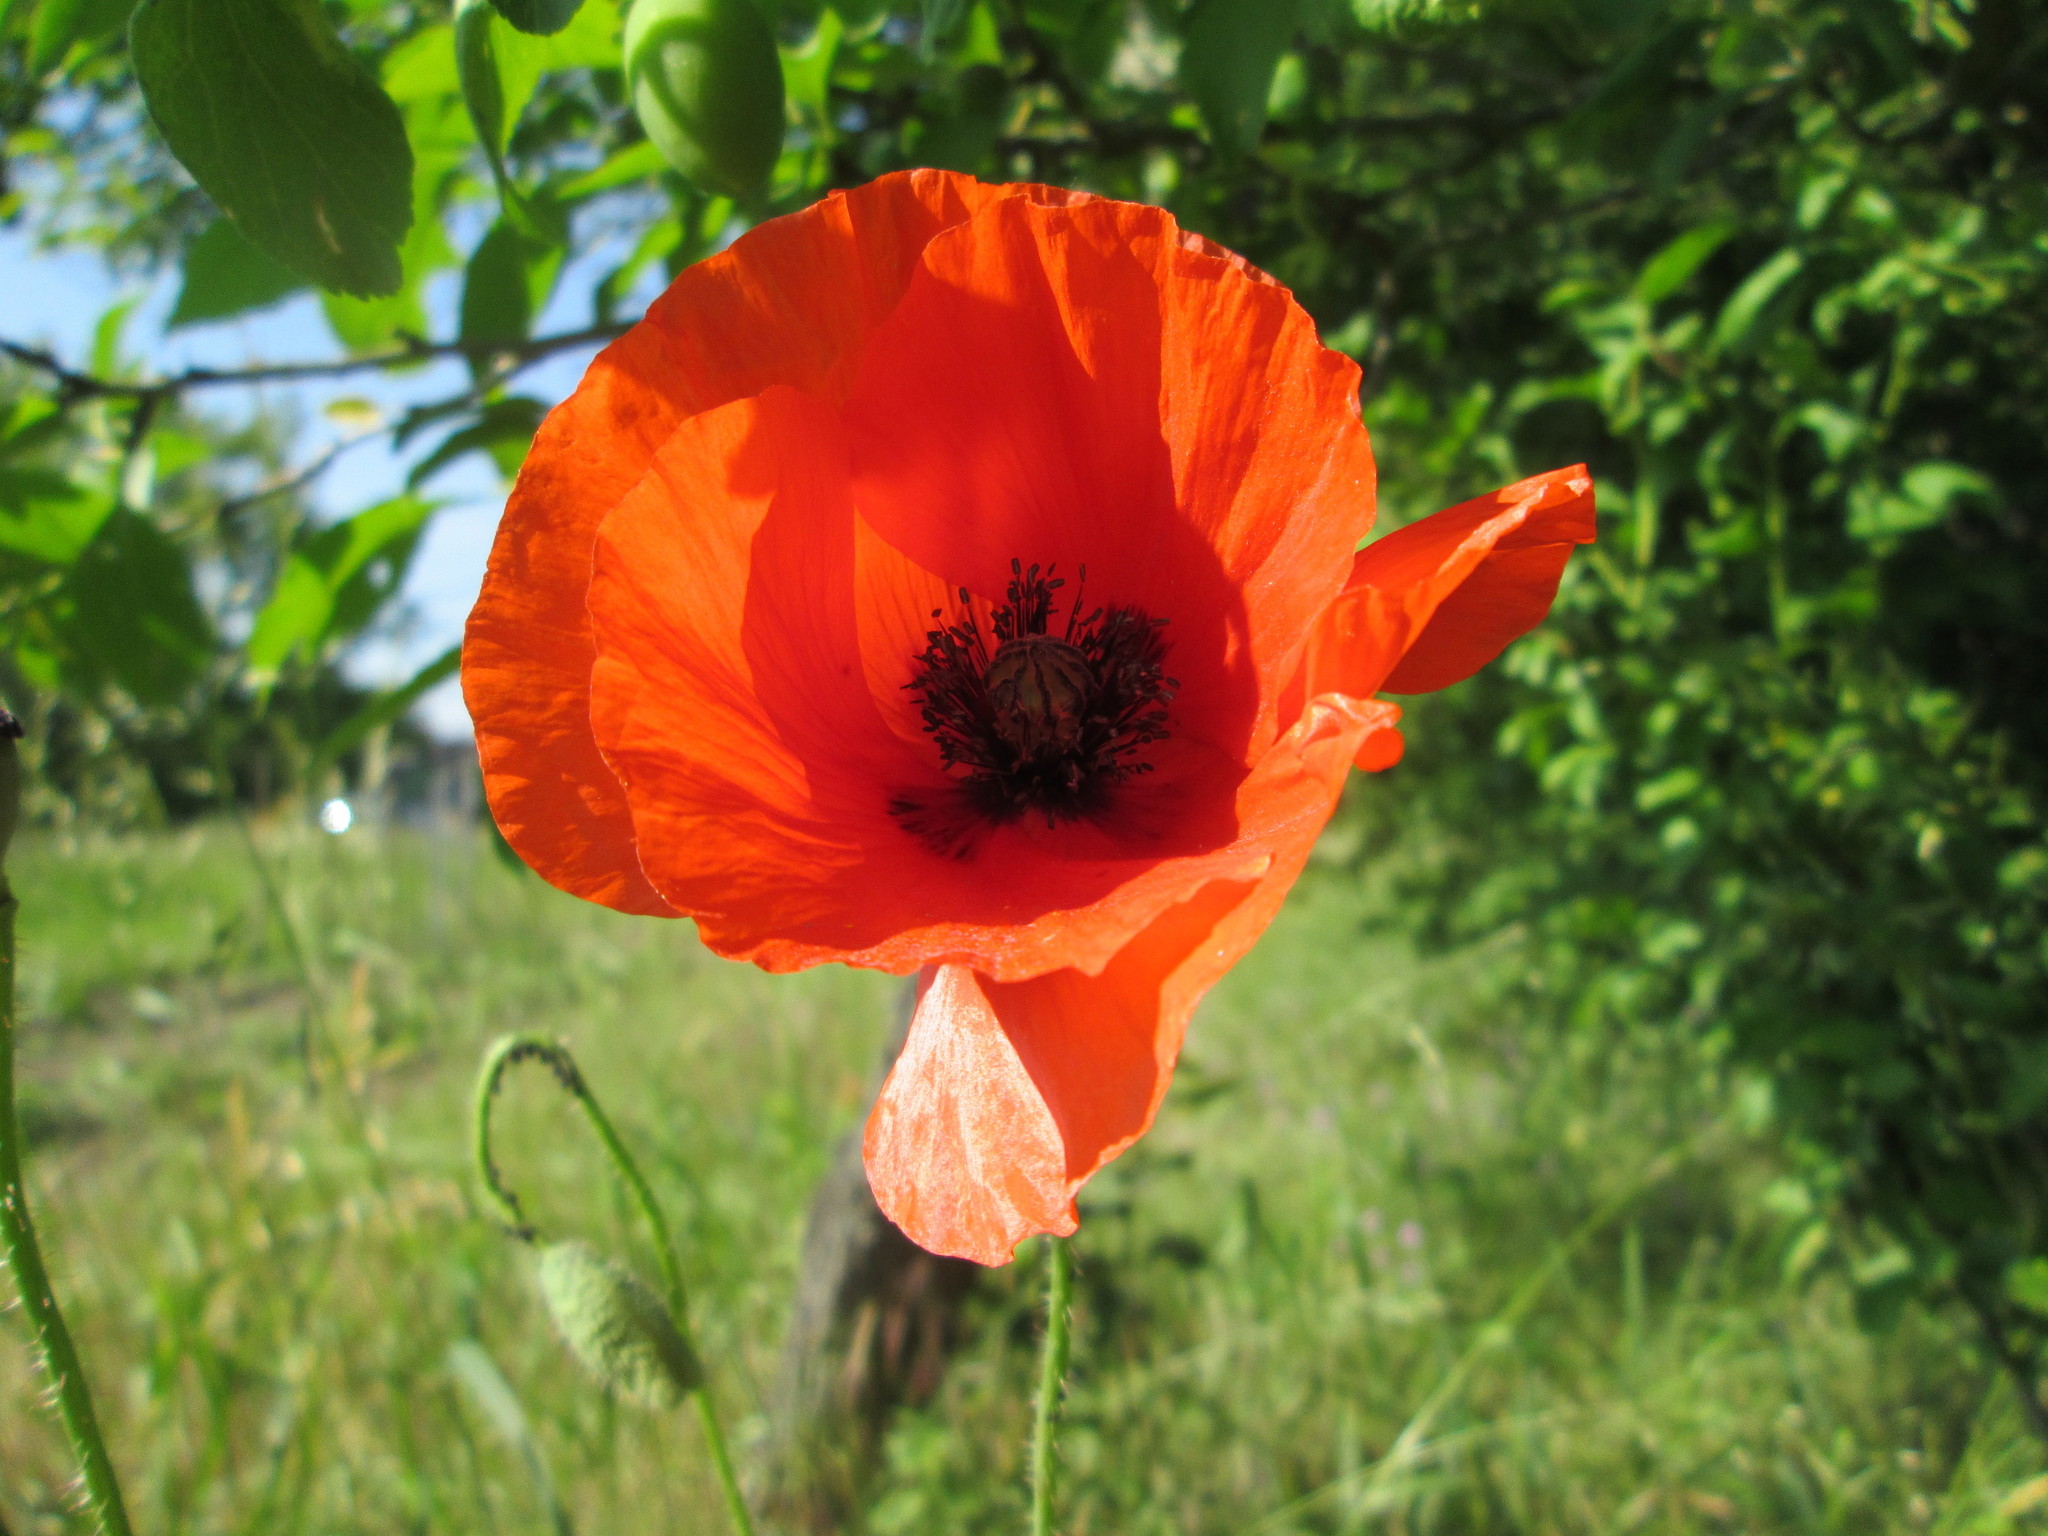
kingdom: Plantae
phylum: Tracheophyta
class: Magnoliopsida
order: Ranunculales
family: Papaveraceae
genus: Papaver
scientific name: Papaver rhoeas
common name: Corn poppy
